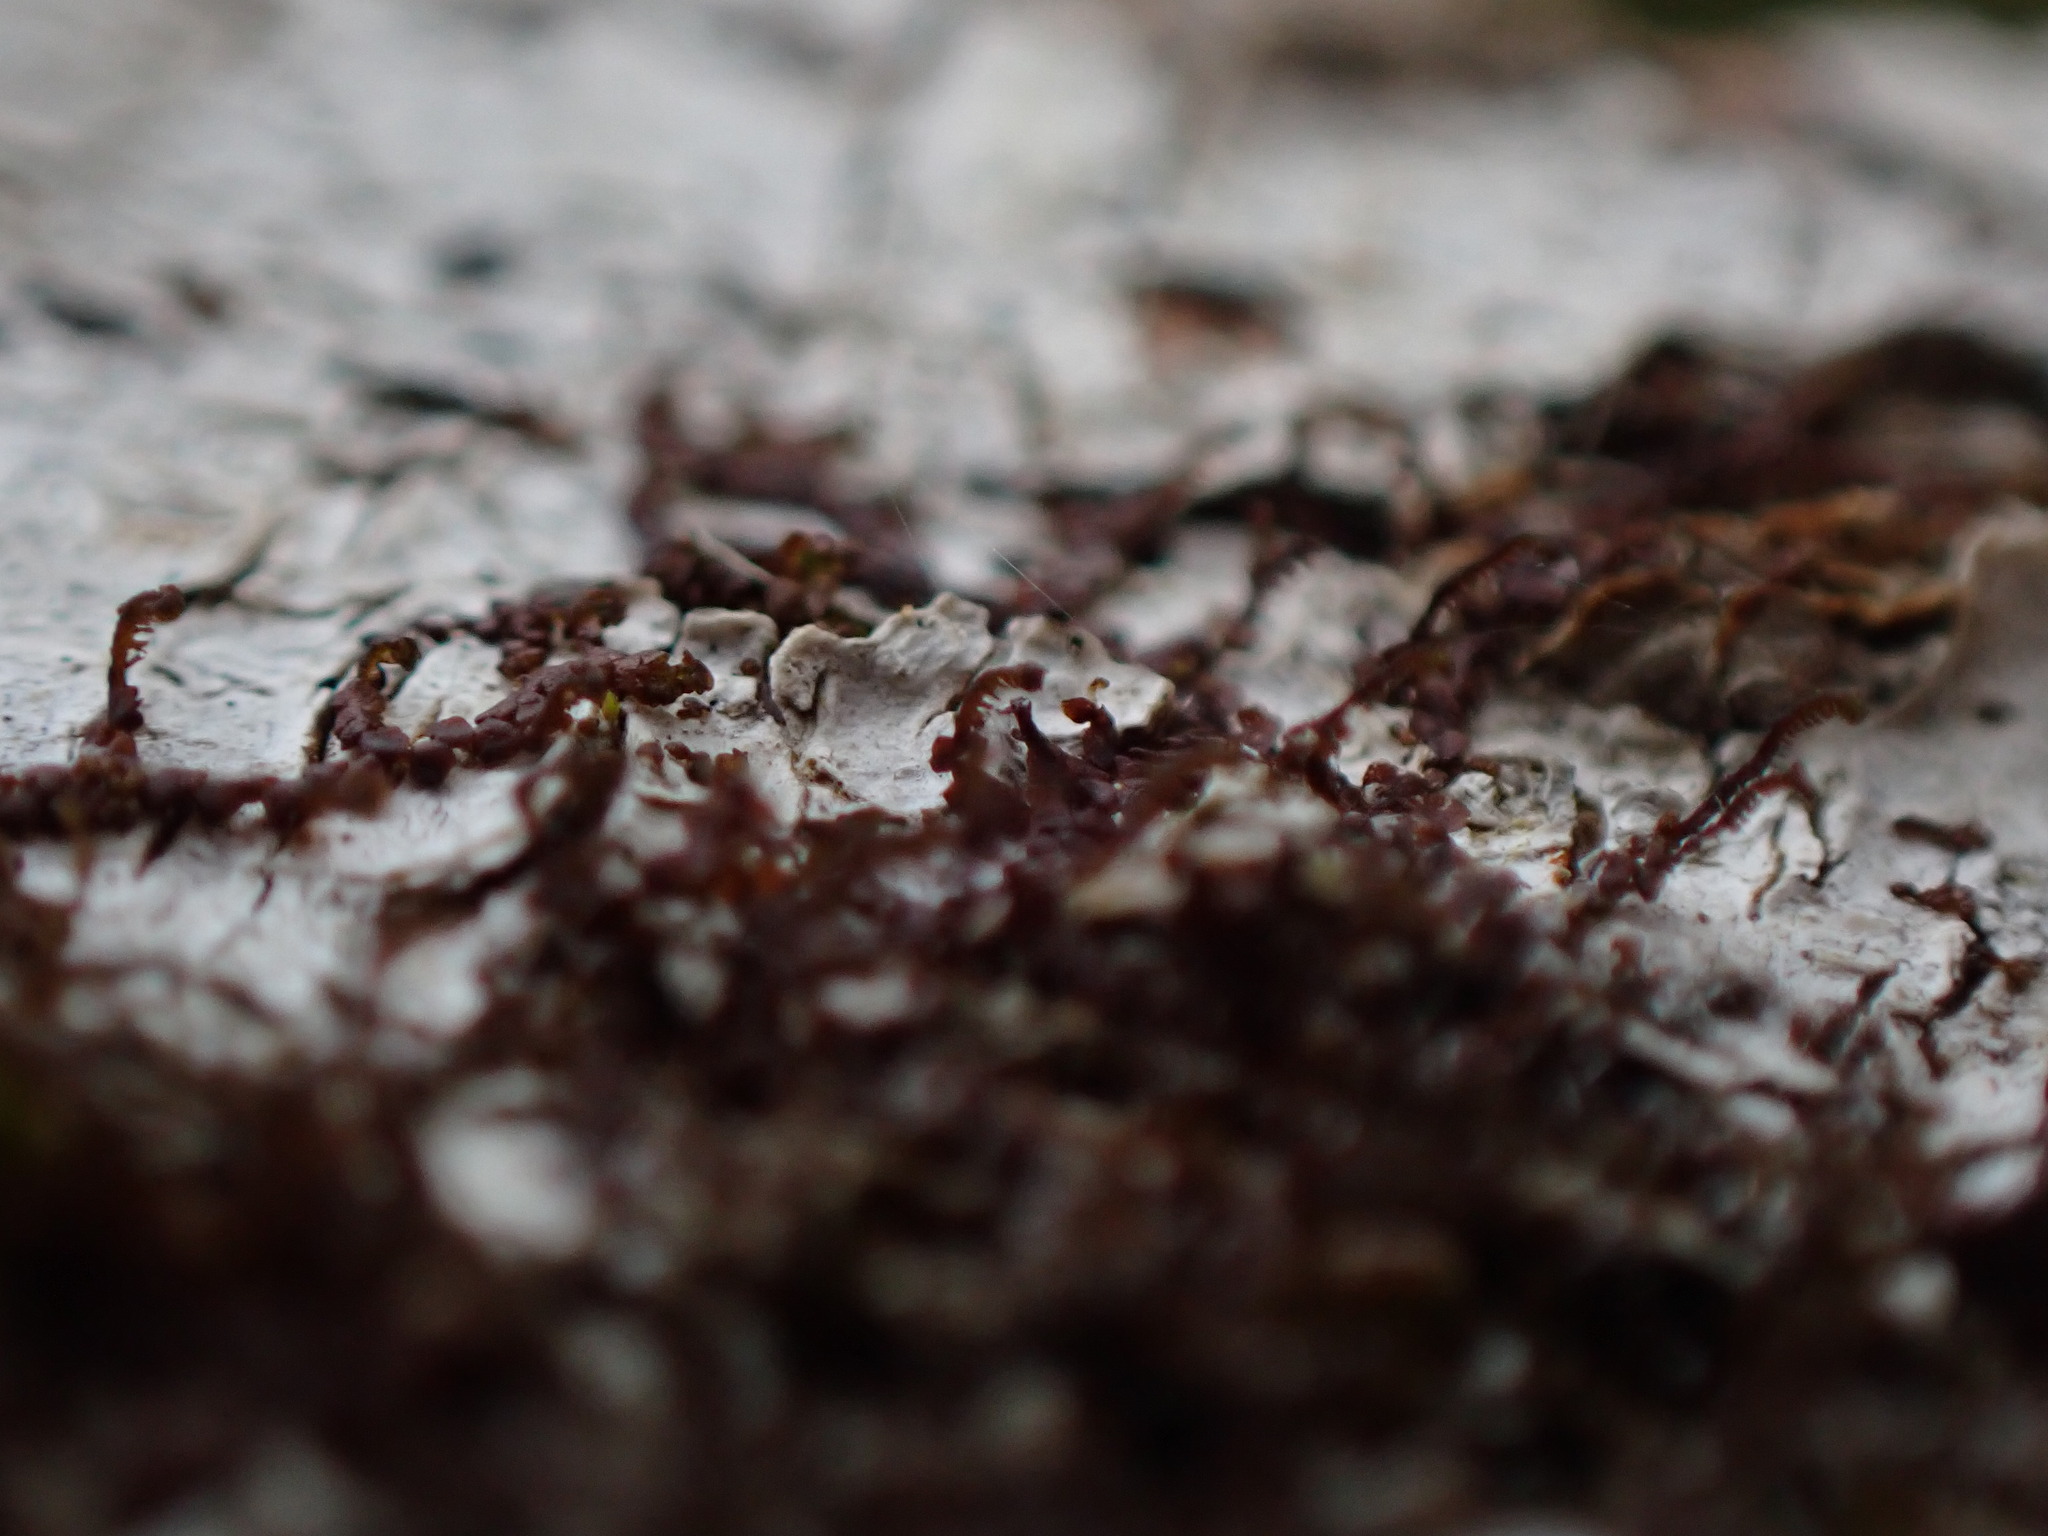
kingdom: Plantae
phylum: Marchantiophyta
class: Jungermanniopsida
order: Porellales
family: Frullaniaceae
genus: Frullania
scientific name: Frullania bolanderi
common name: Bolander s scalewort
